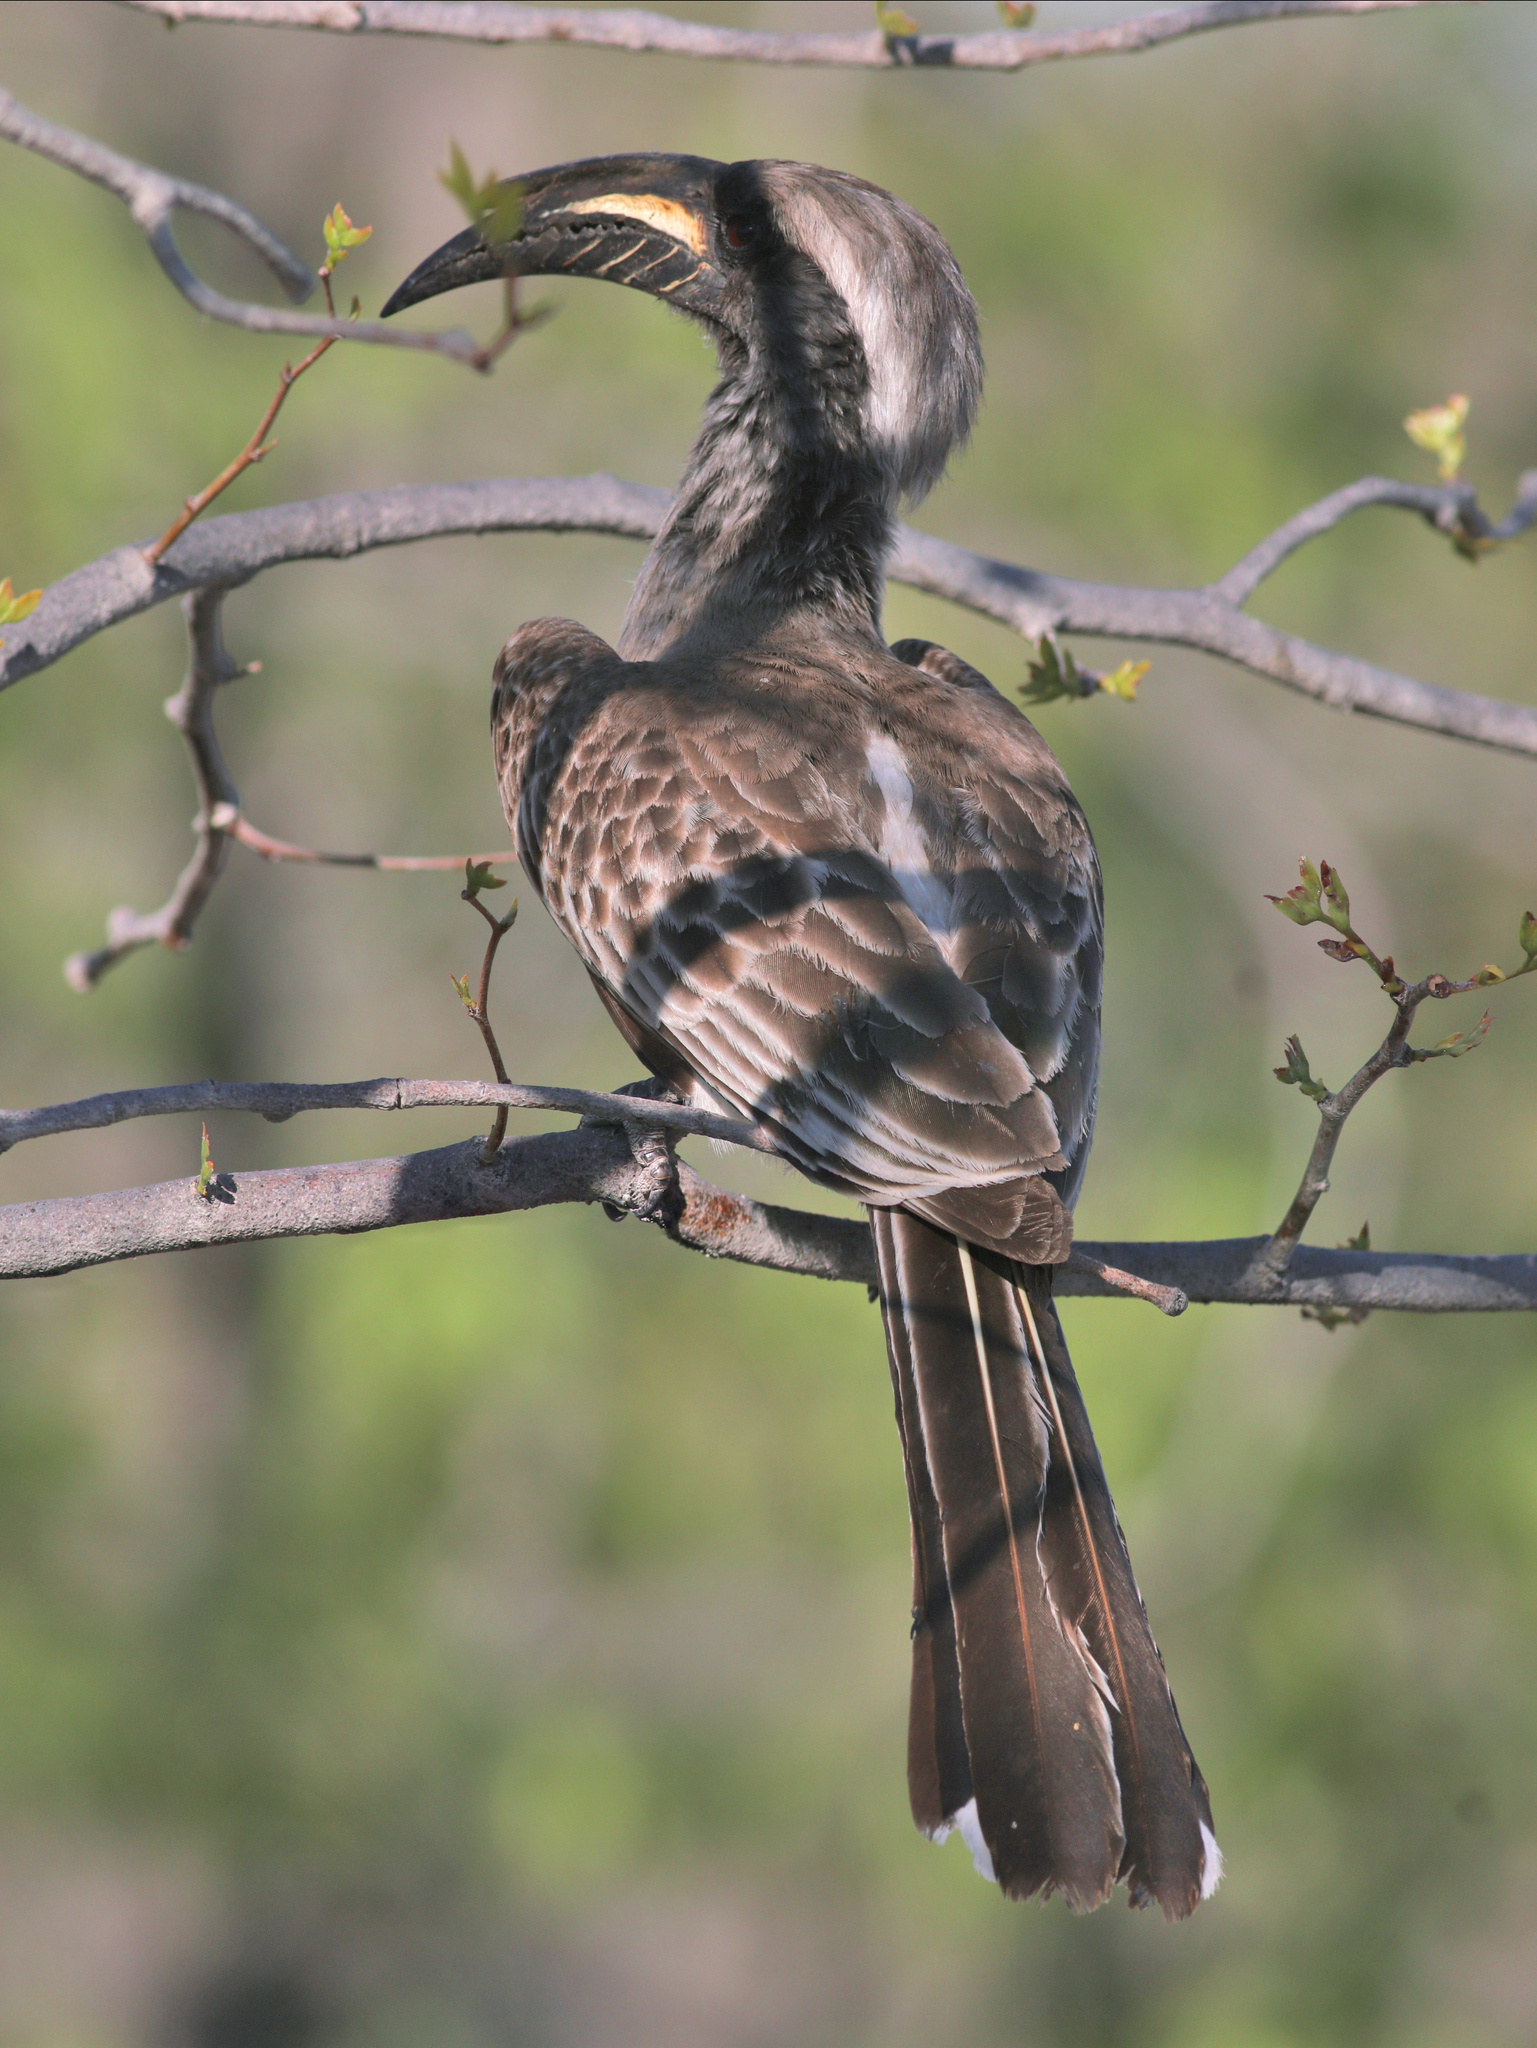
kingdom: Animalia
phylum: Chordata
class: Aves
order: Bucerotiformes
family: Bucerotidae
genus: Lophoceros
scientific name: Lophoceros nasutus
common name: African grey hornbill
